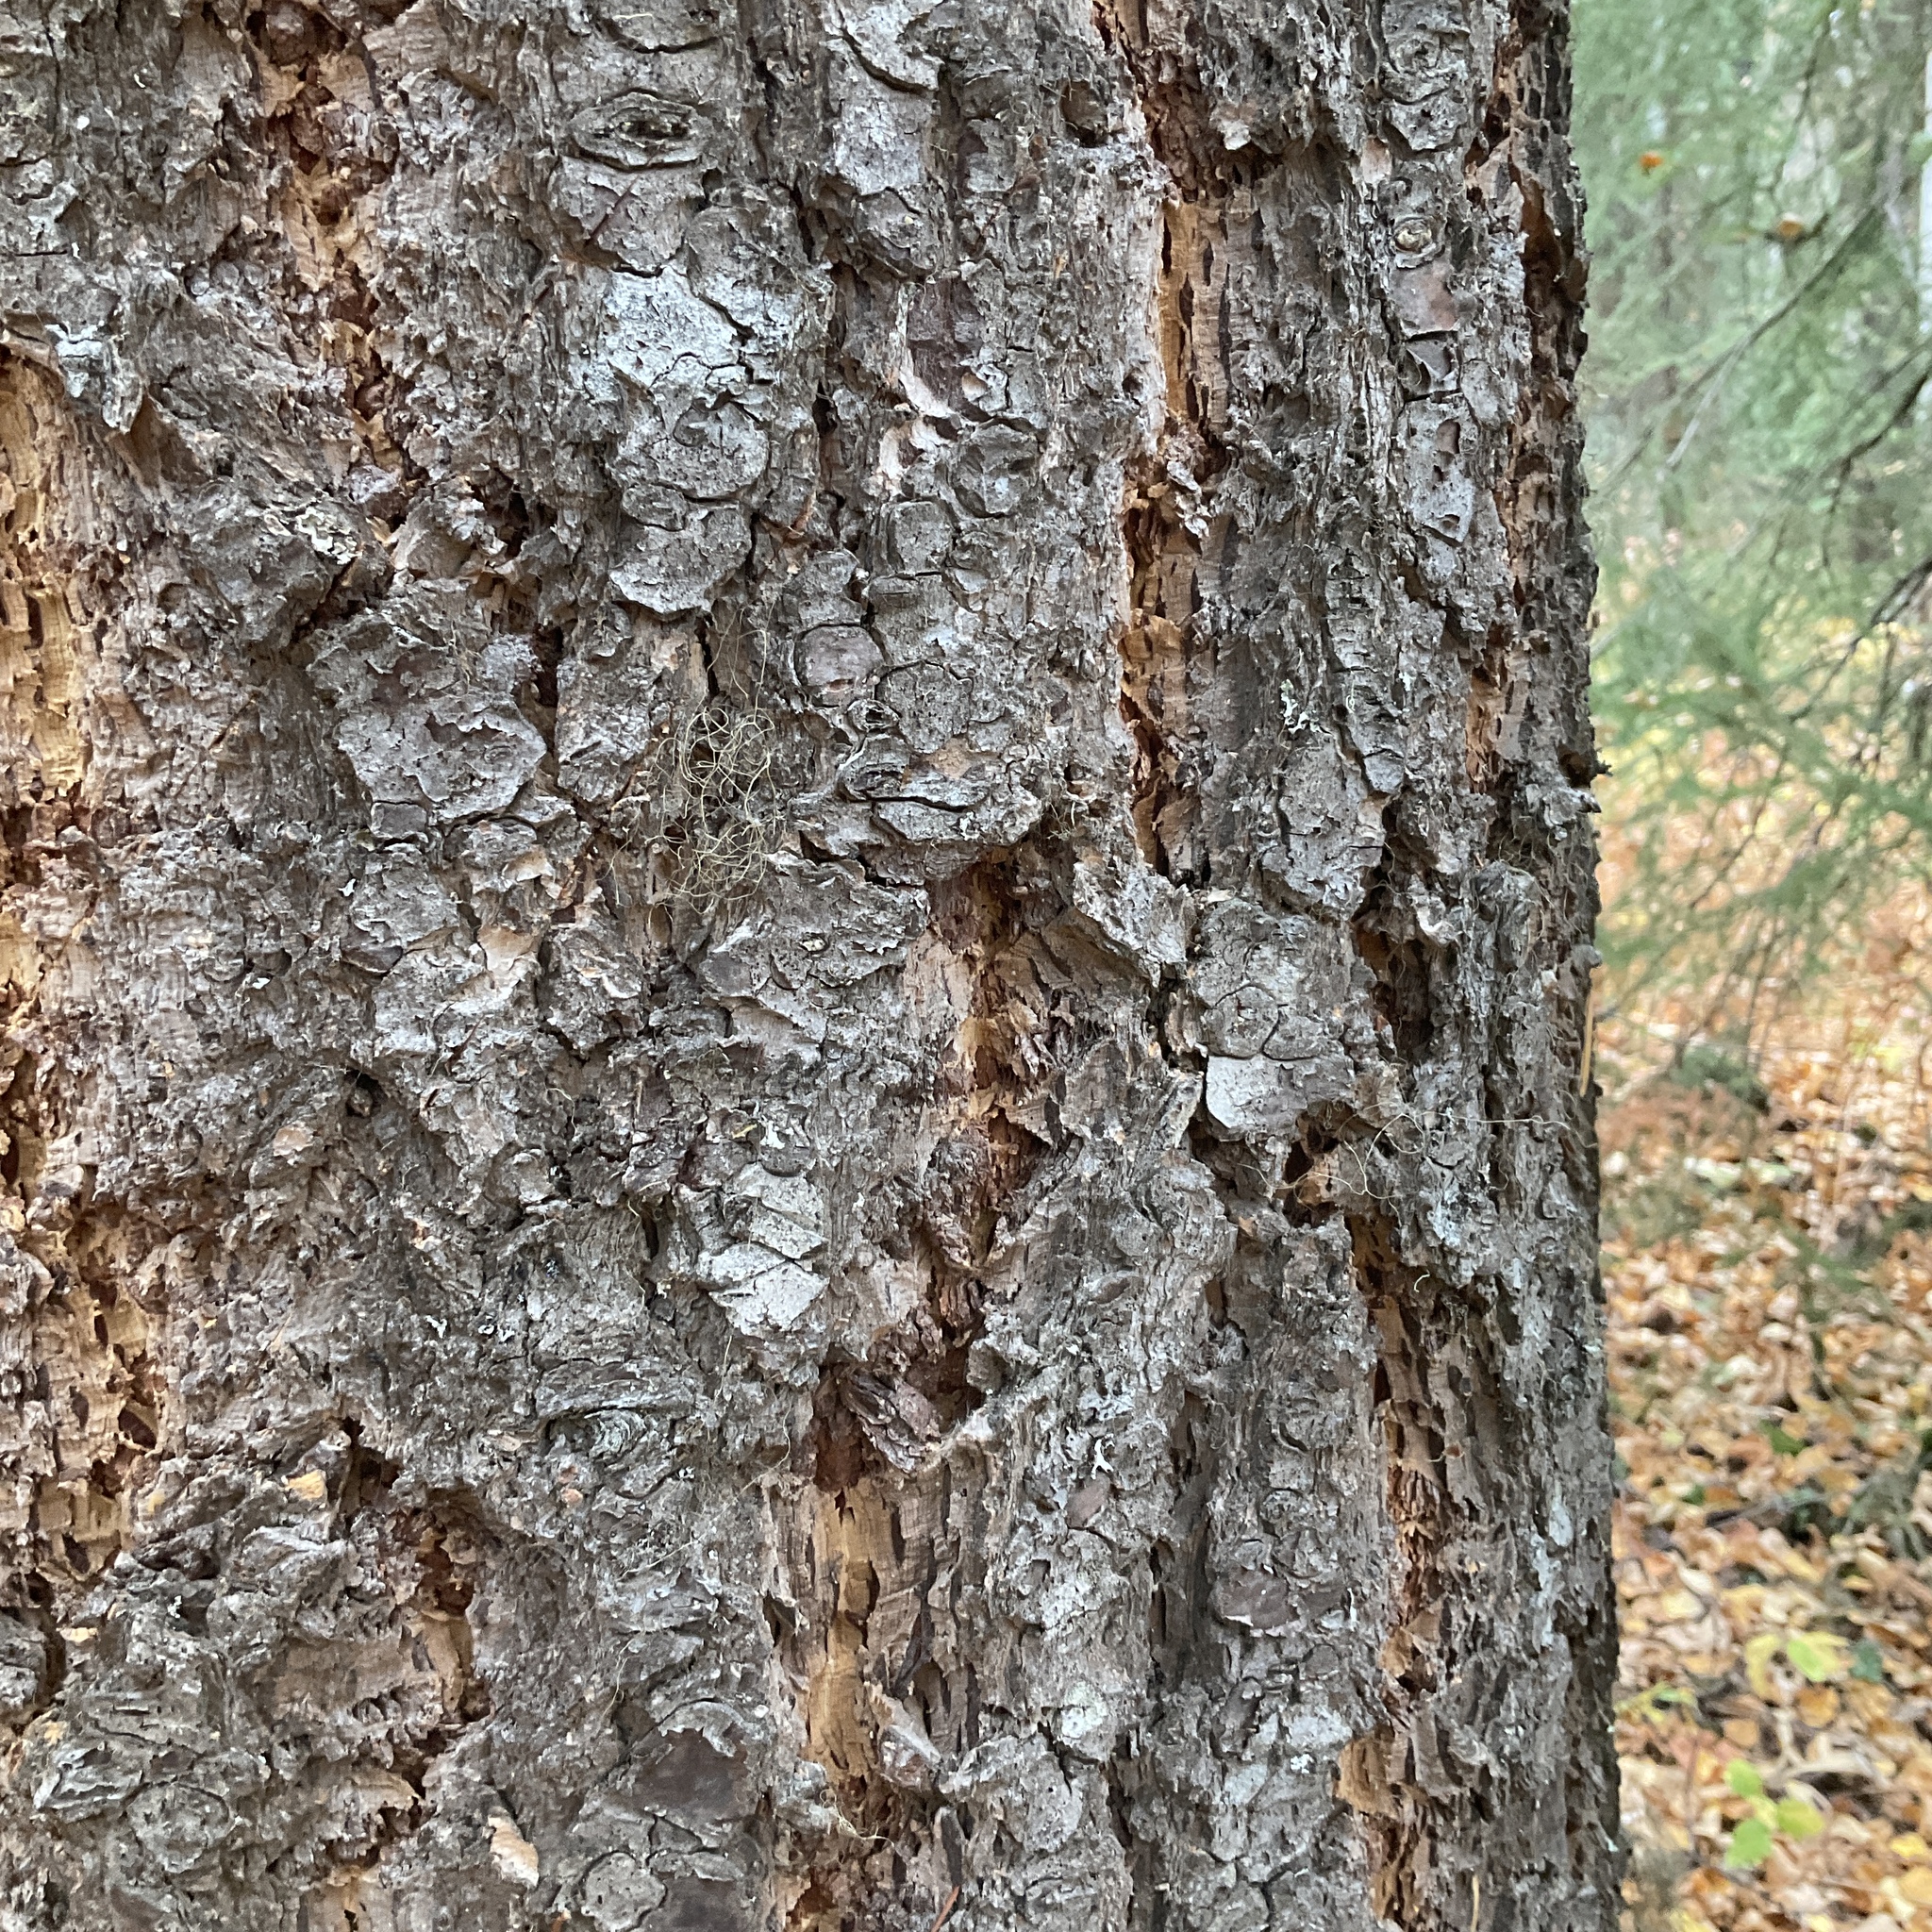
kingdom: Plantae
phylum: Tracheophyta
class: Pinopsida
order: Pinales
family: Pinaceae
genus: Pseudotsuga
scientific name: Pseudotsuga menziesii
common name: Douglas fir
